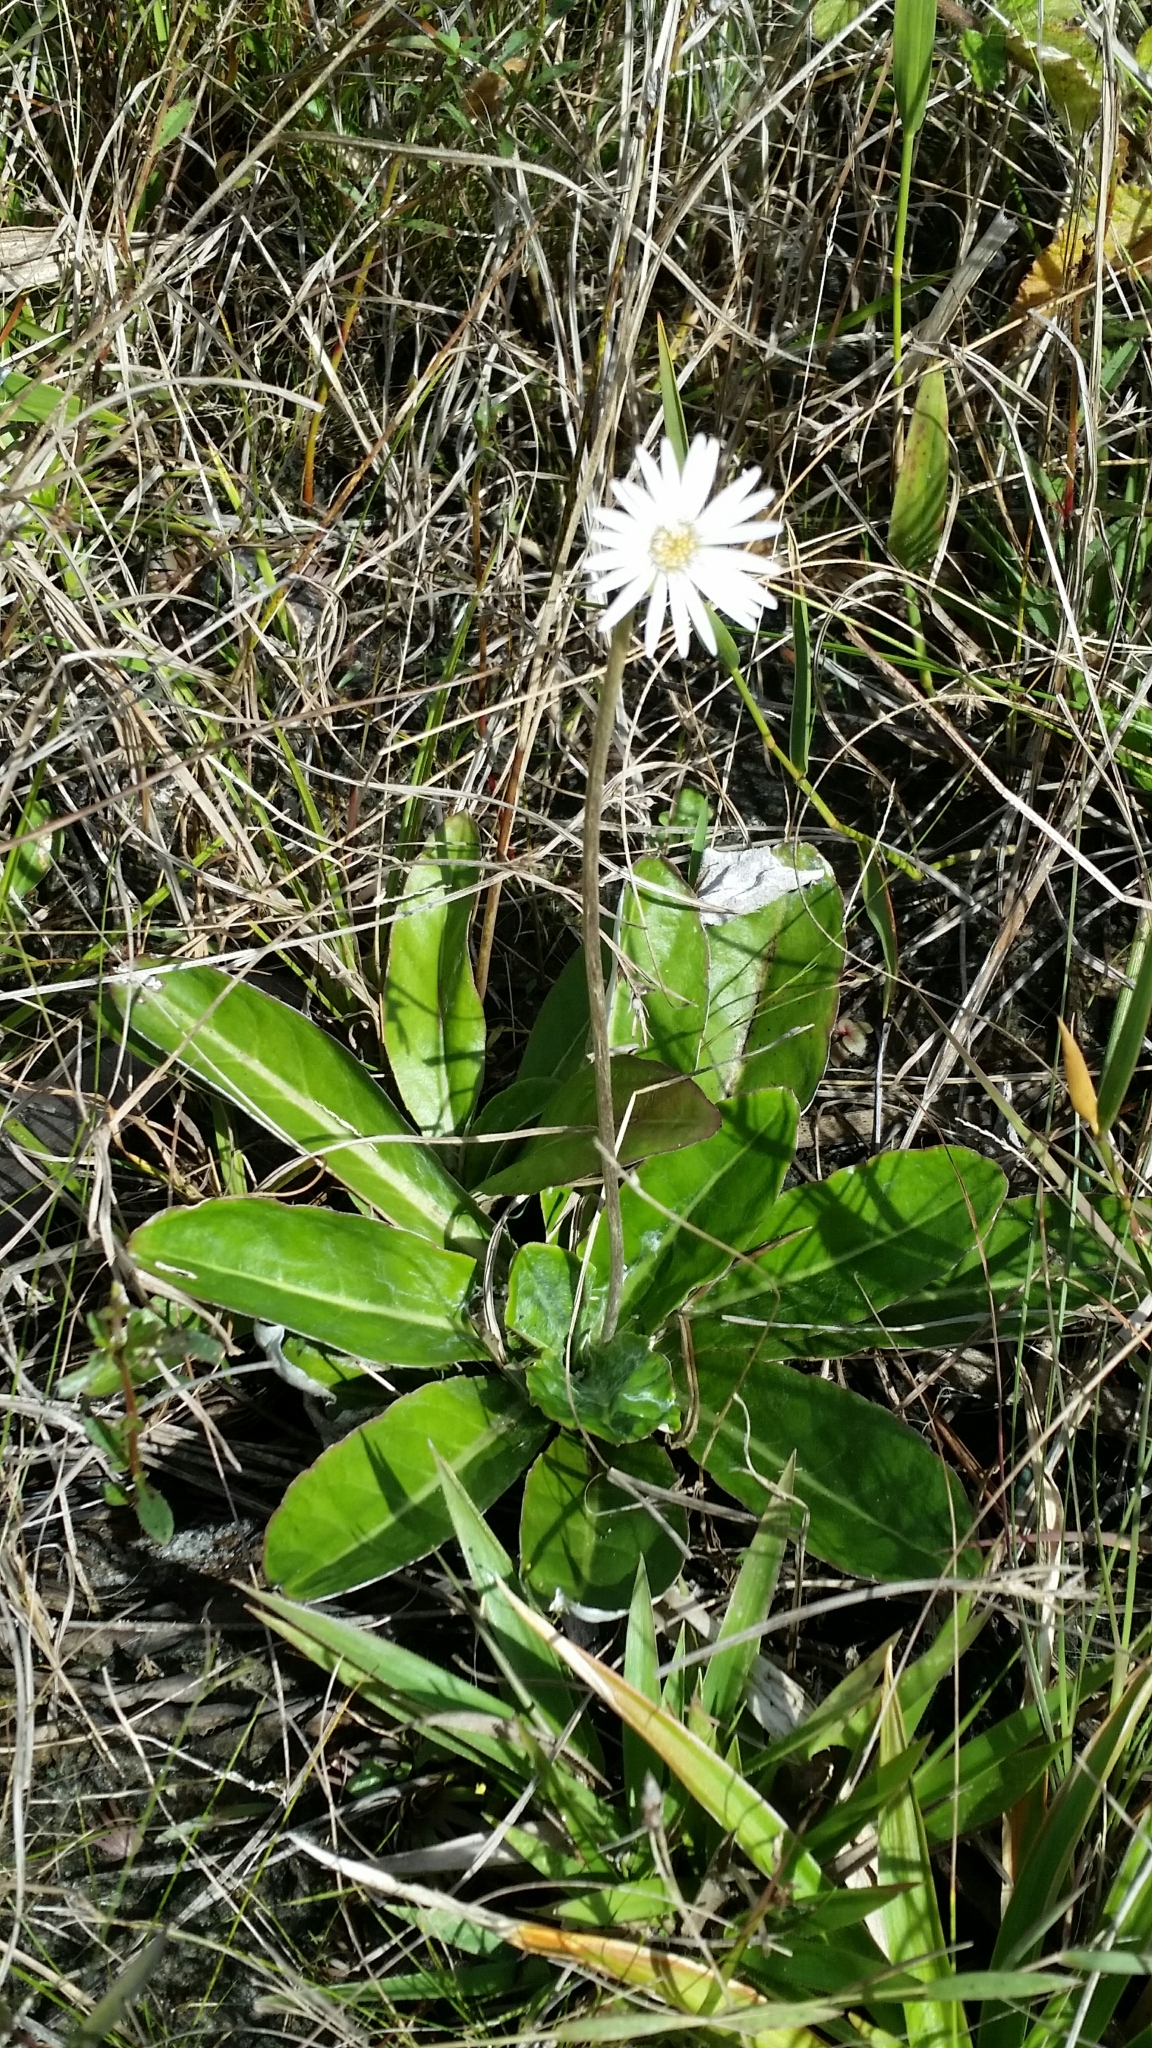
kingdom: Plantae
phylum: Tracheophyta
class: Magnoliopsida
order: Asterales
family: Asteraceae
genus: Chaptalia
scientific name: Chaptalia tomentosa
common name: Woolly sunbonnet
